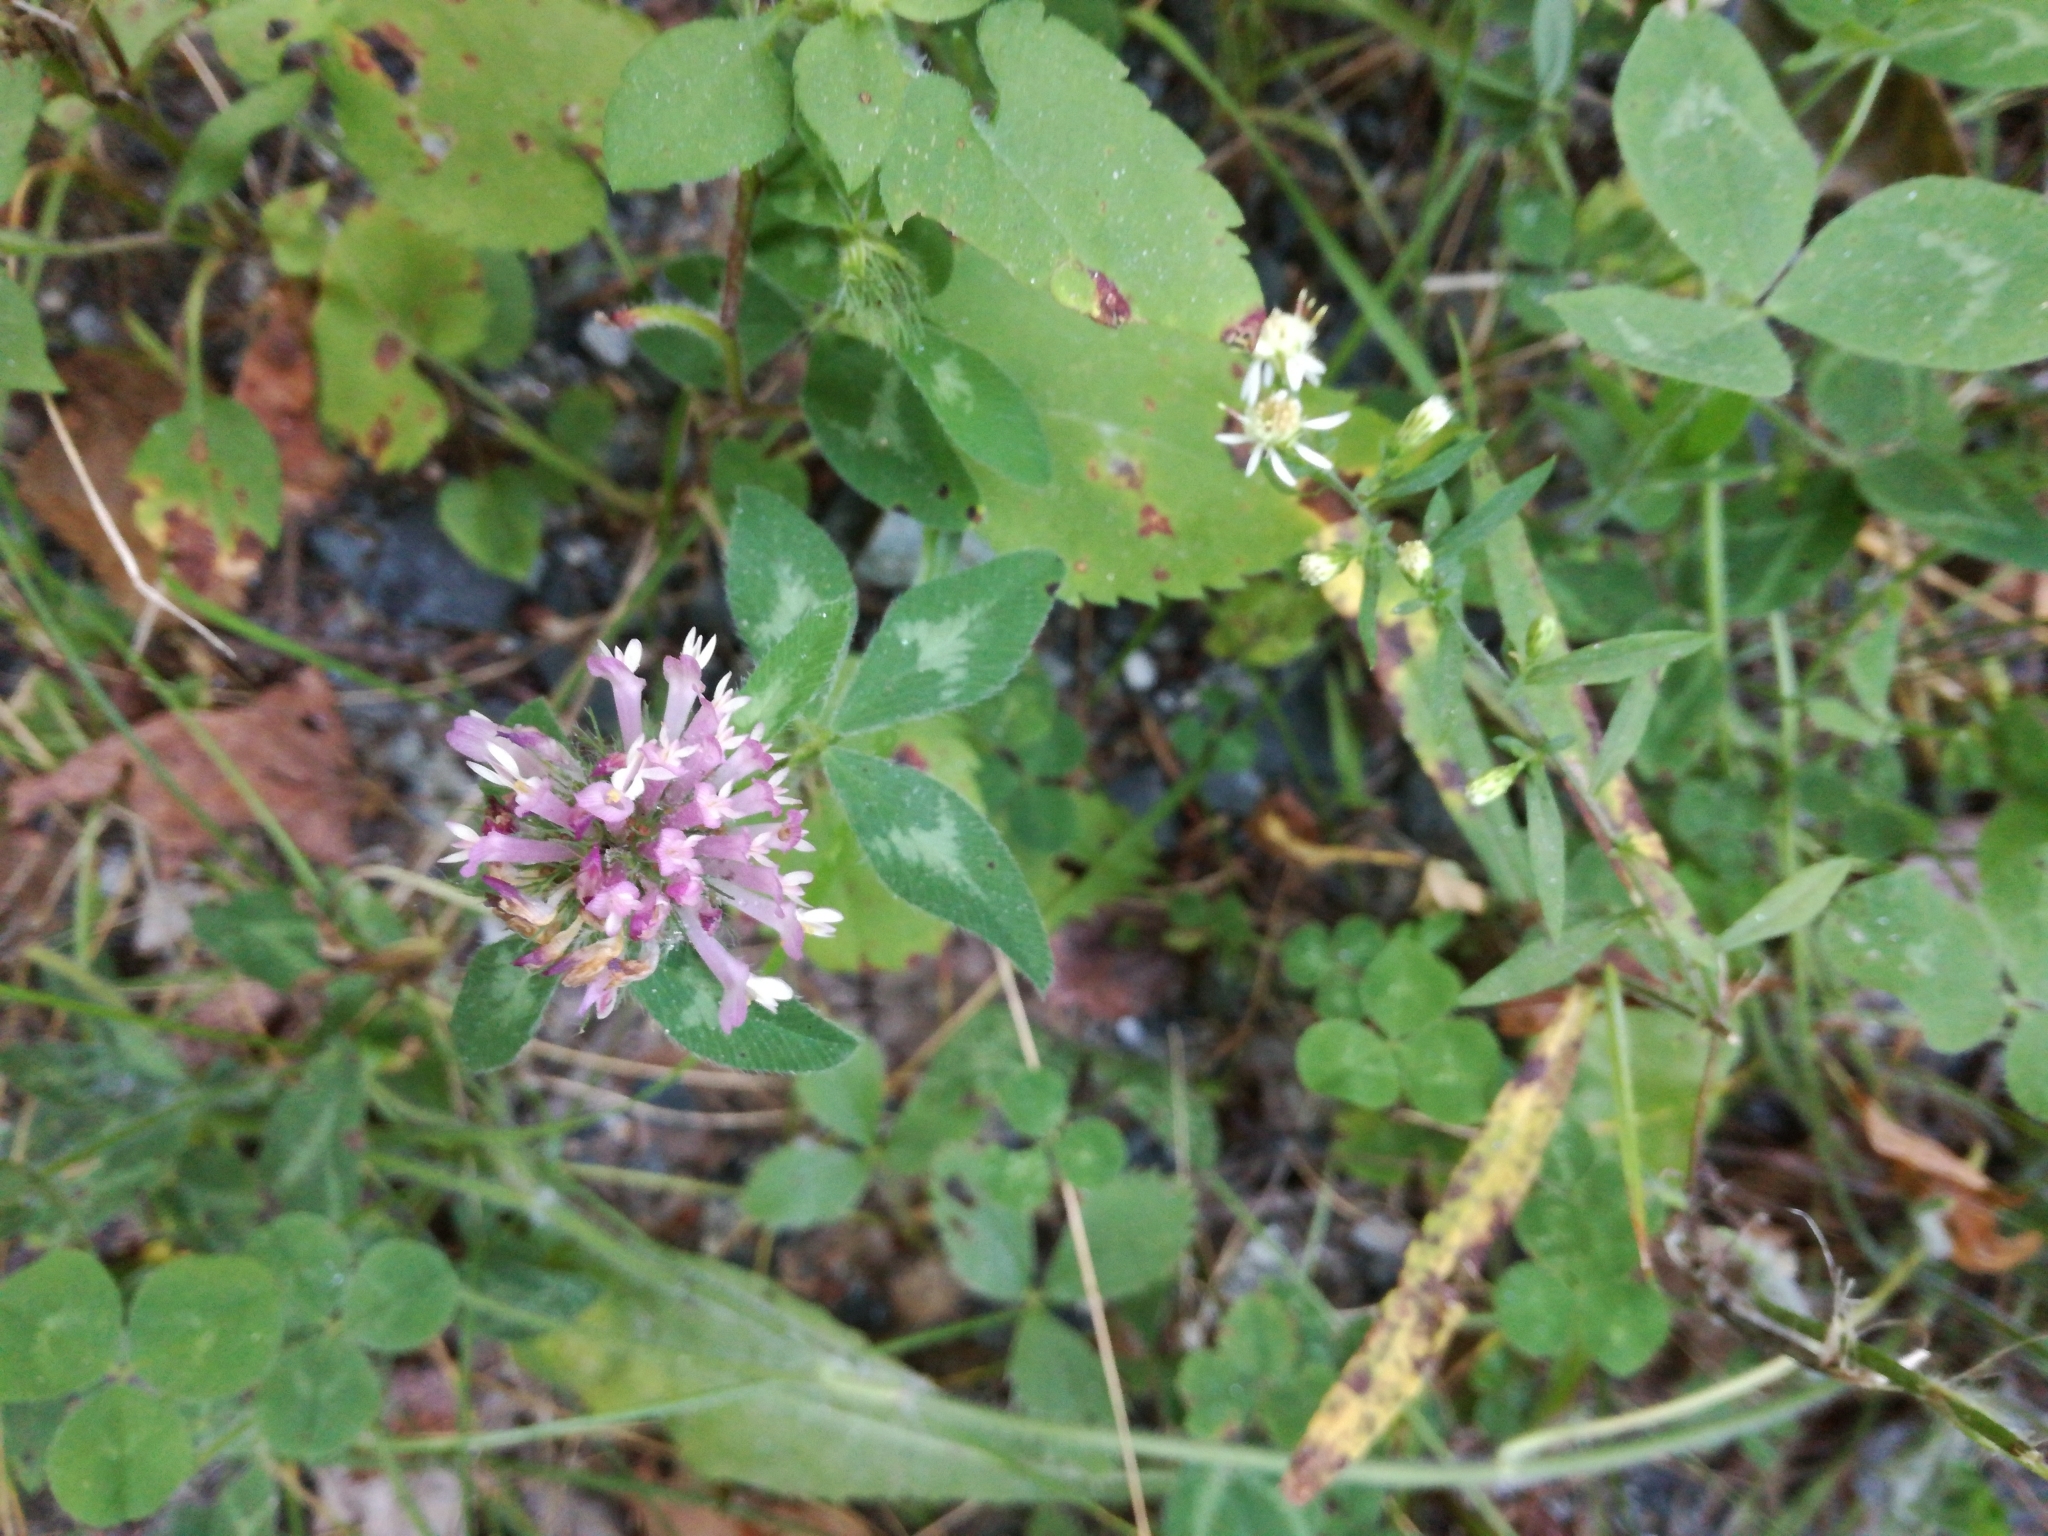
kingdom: Plantae
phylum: Tracheophyta
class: Magnoliopsida
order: Fabales
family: Fabaceae
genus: Trifolium
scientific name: Trifolium pratense
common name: Red clover
